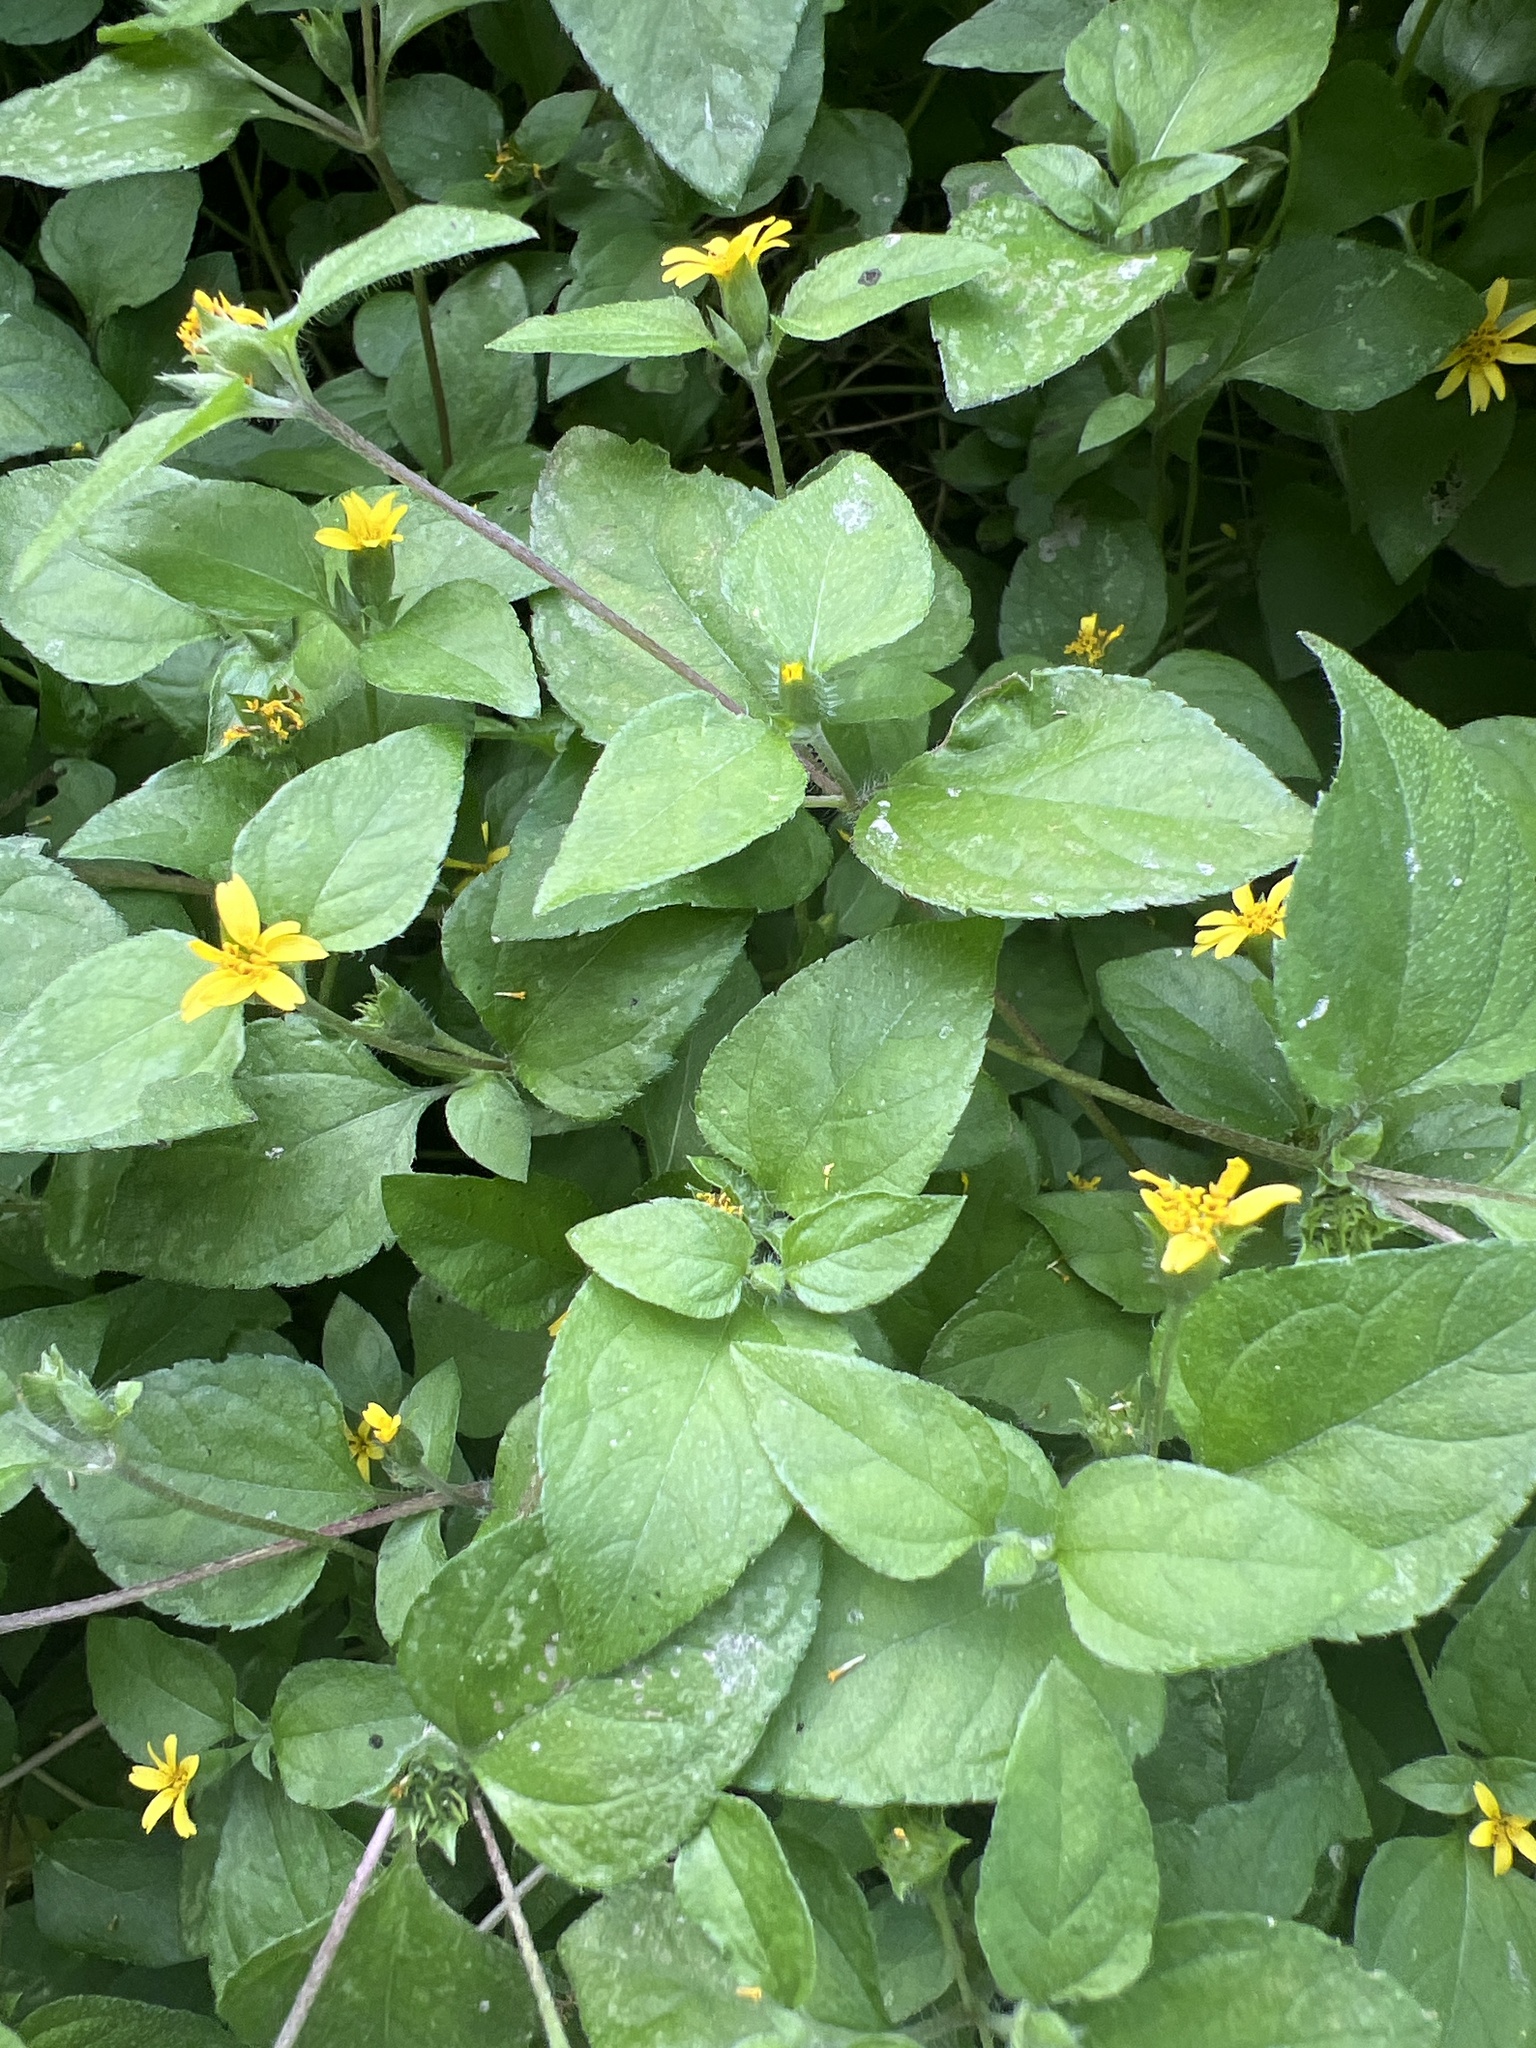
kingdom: Plantae
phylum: Tracheophyta
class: Magnoliopsida
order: Asterales
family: Asteraceae
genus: Calyptocarpus
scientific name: Calyptocarpus vialis
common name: Straggler daisy
